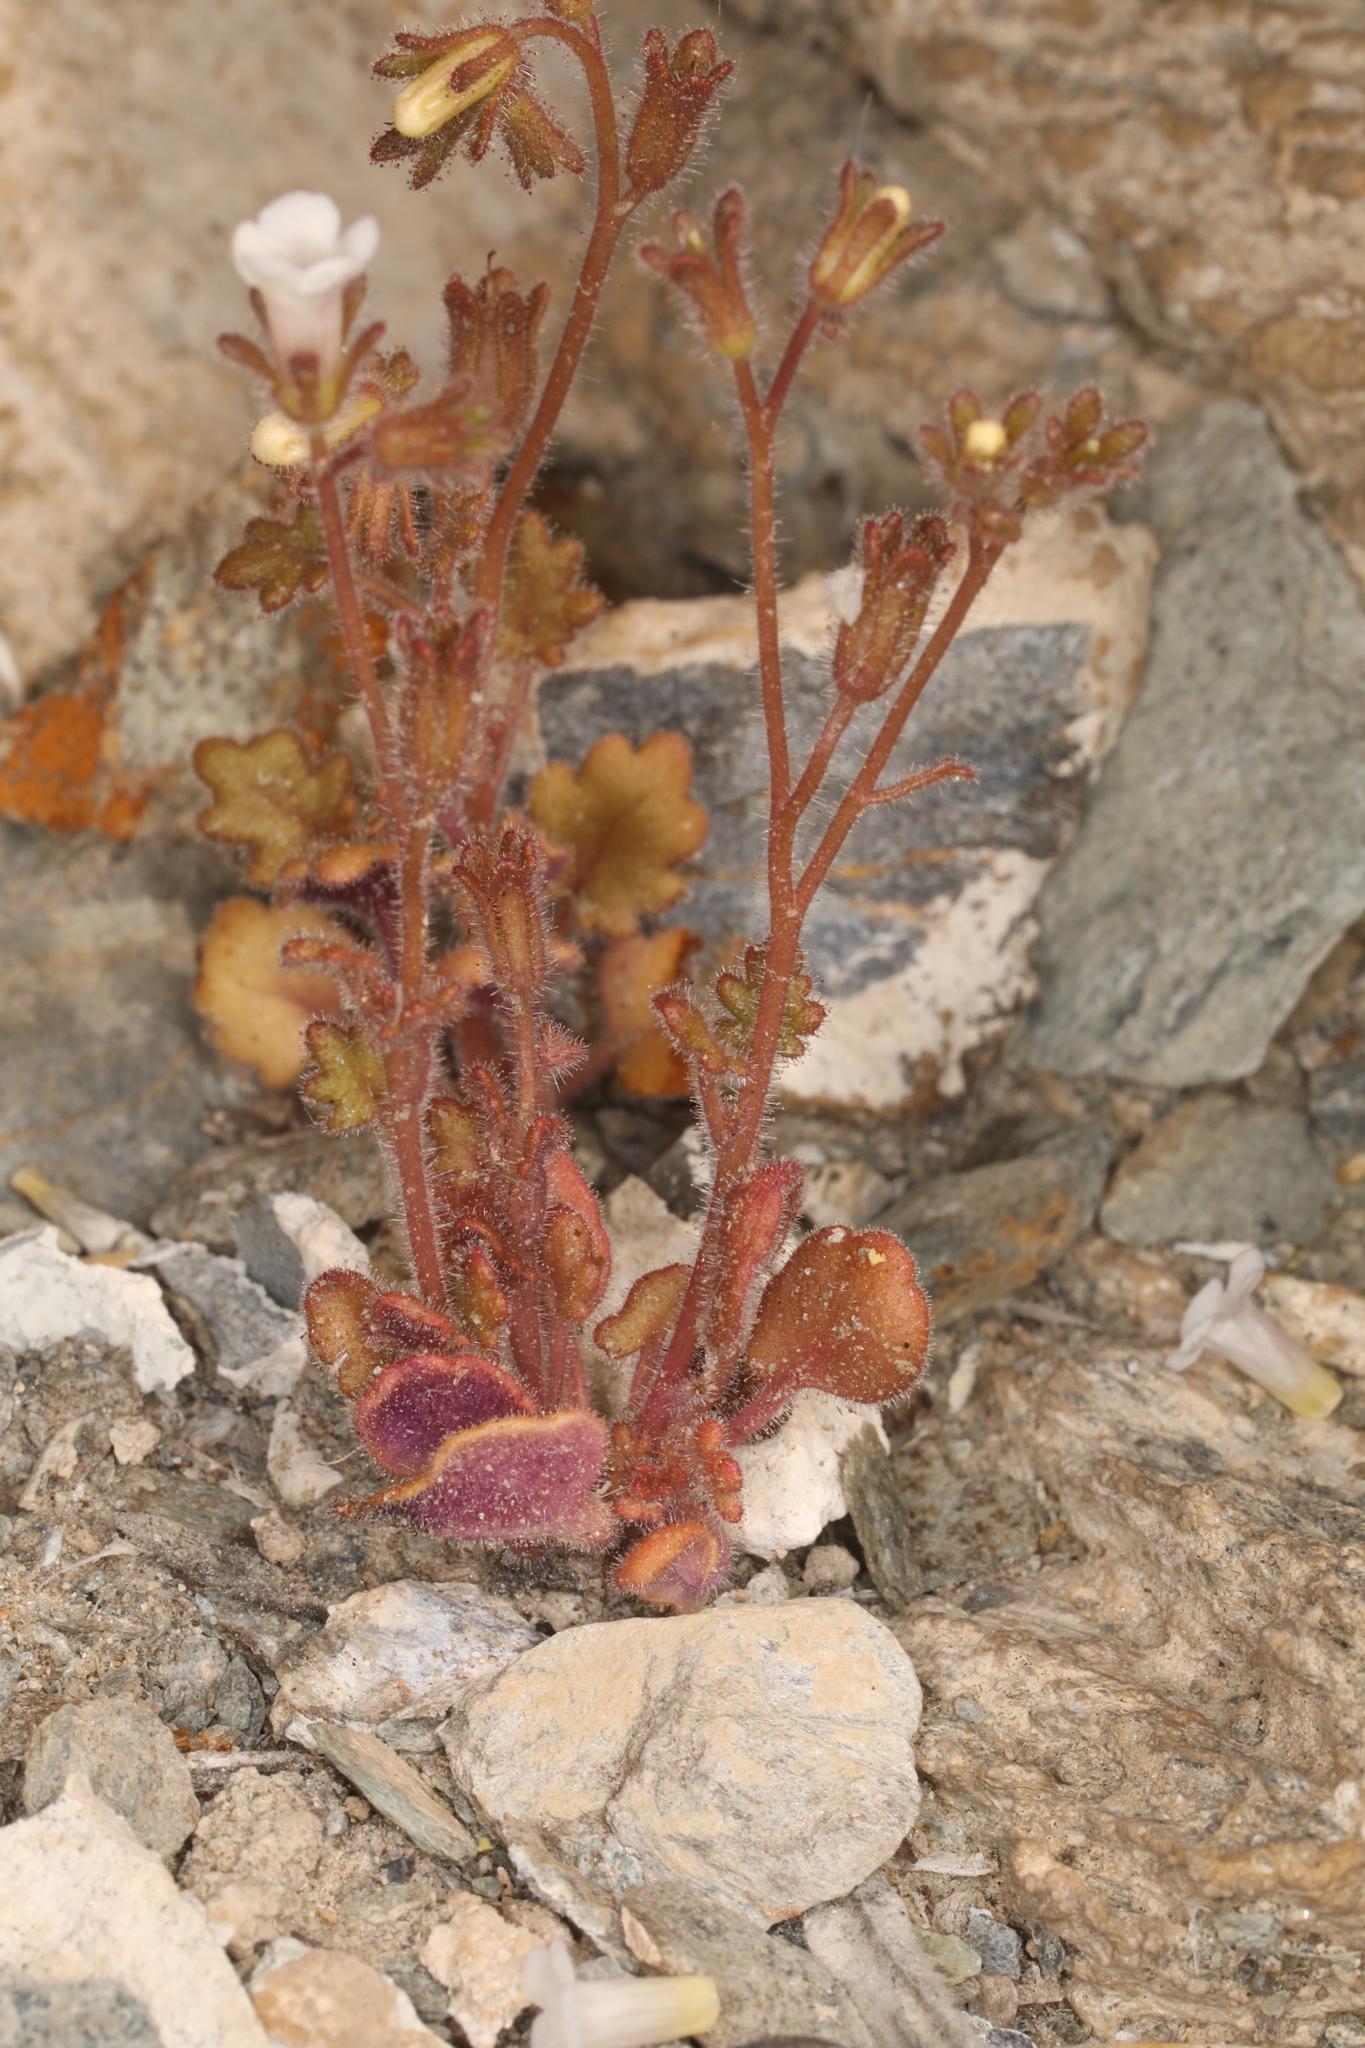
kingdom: Plantae
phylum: Tracheophyta
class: Magnoliopsida
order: Boraginales
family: Hydrophyllaceae
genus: Phacelia
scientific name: Phacelia rotundifolia
